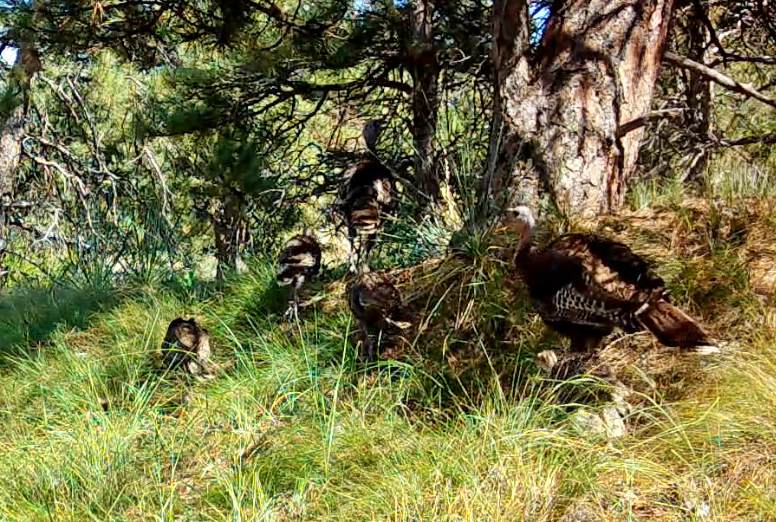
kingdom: Animalia
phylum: Chordata
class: Aves
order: Galliformes
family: Phasianidae
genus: Meleagris
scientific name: Meleagris gallopavo
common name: Wild turkey
